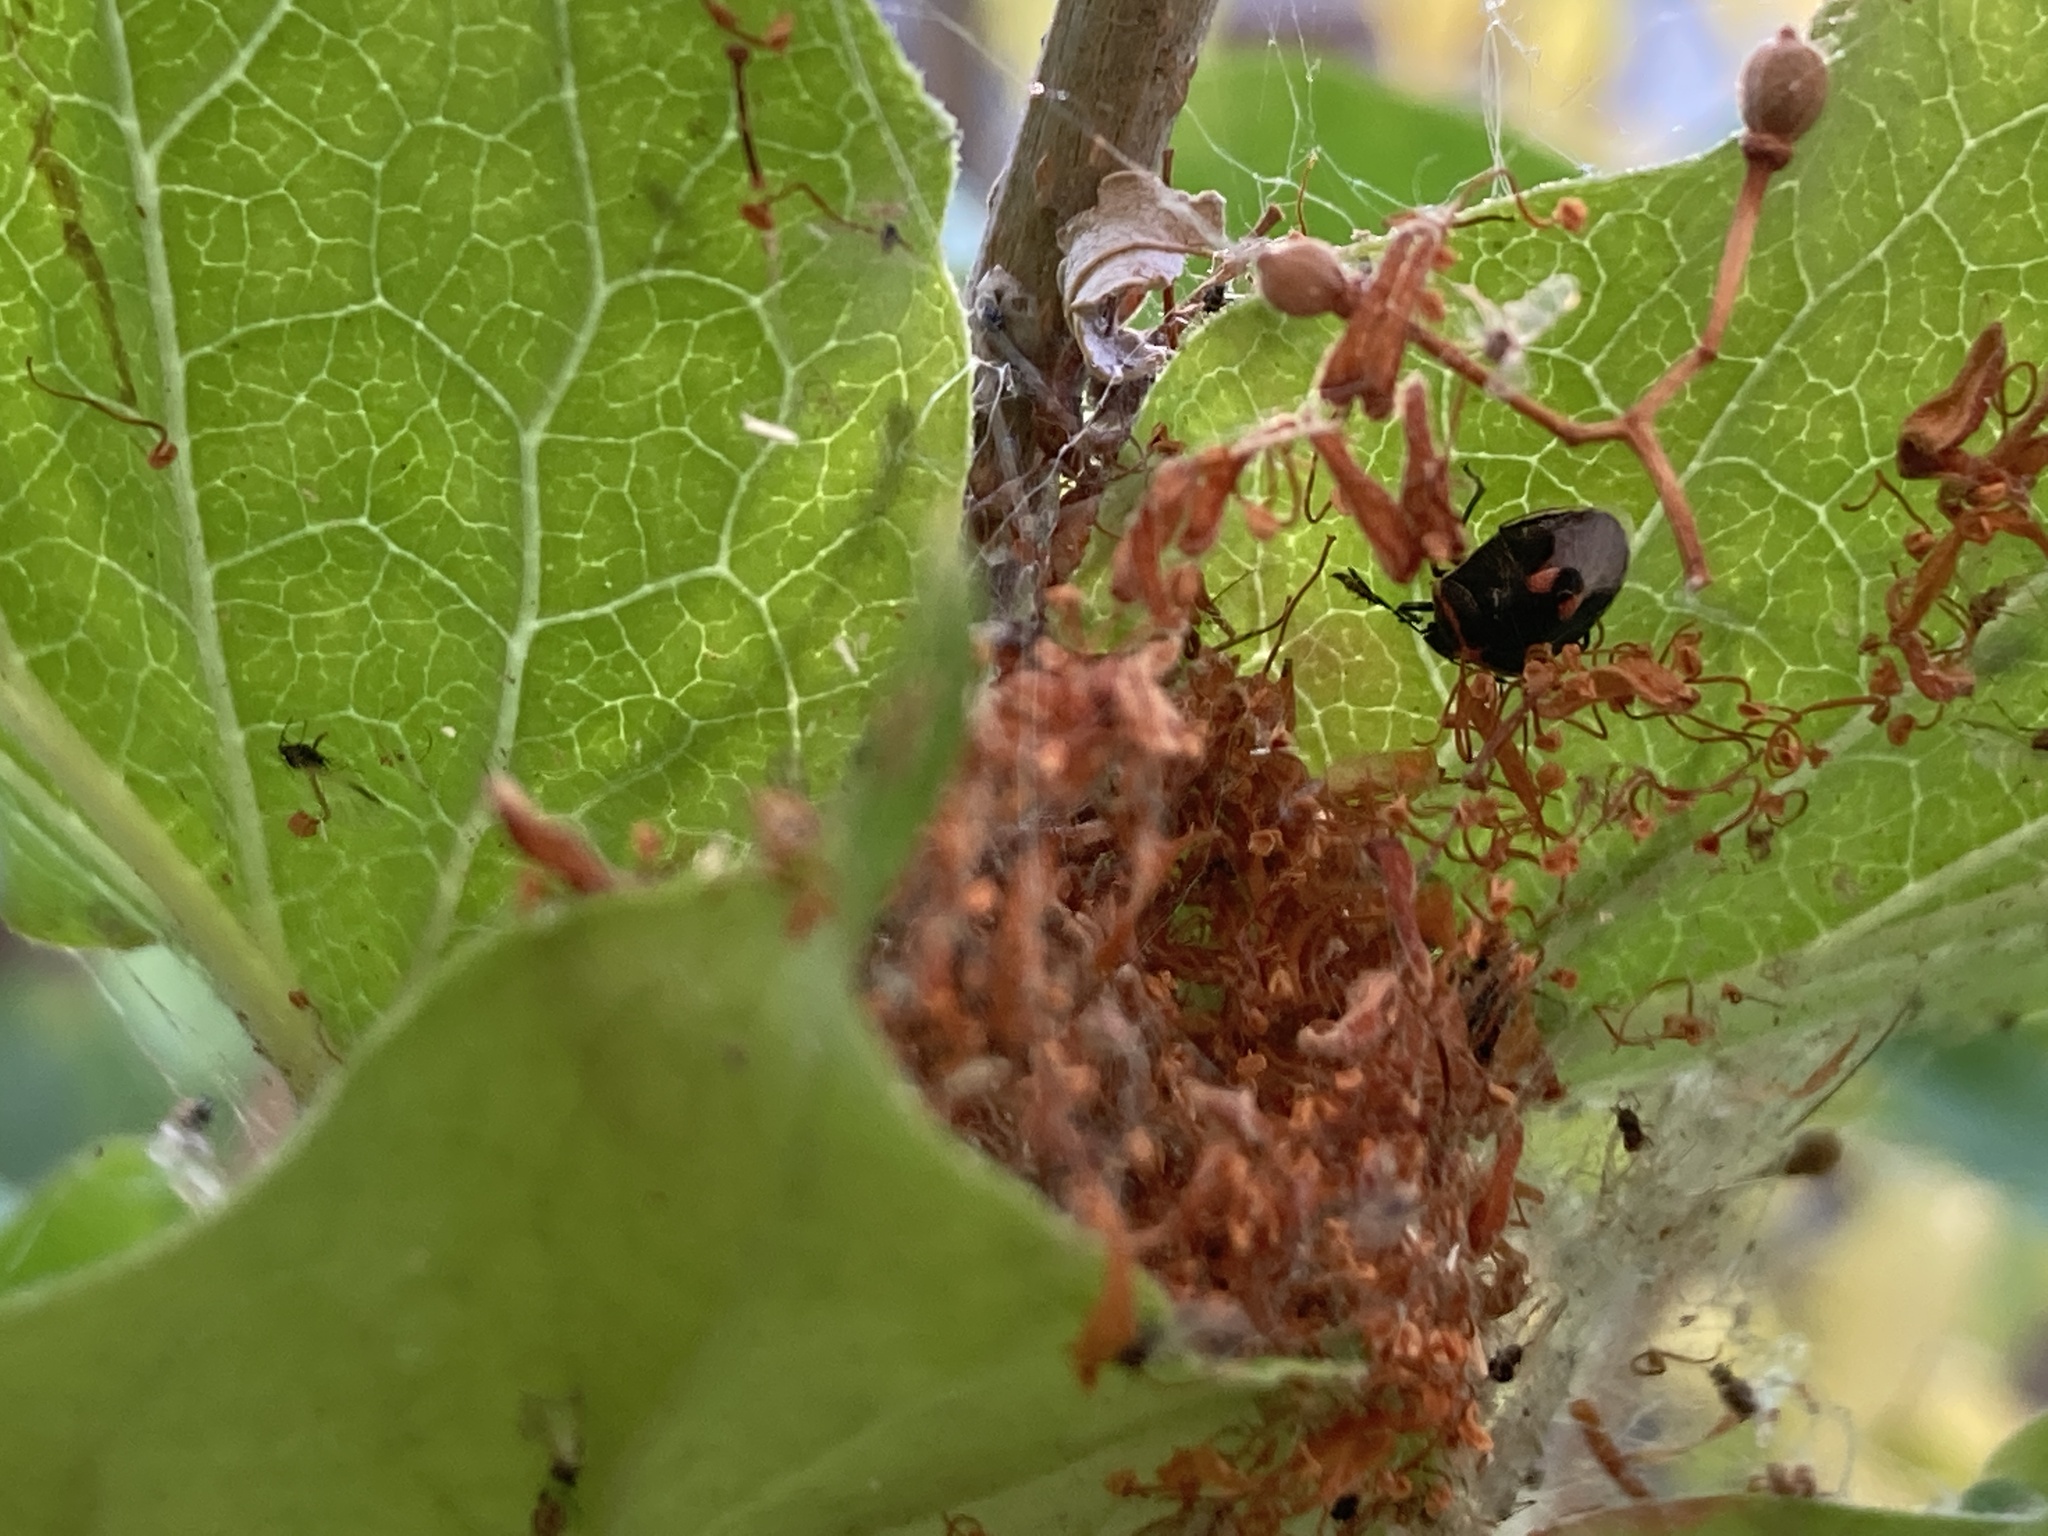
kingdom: Animalia
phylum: Arthropoda
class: Insecta
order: Hemiptera
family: Pentatomidae
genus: Cosmopepla
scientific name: Cosmopepla lintneriana
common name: Twice-stabbed stink bug
